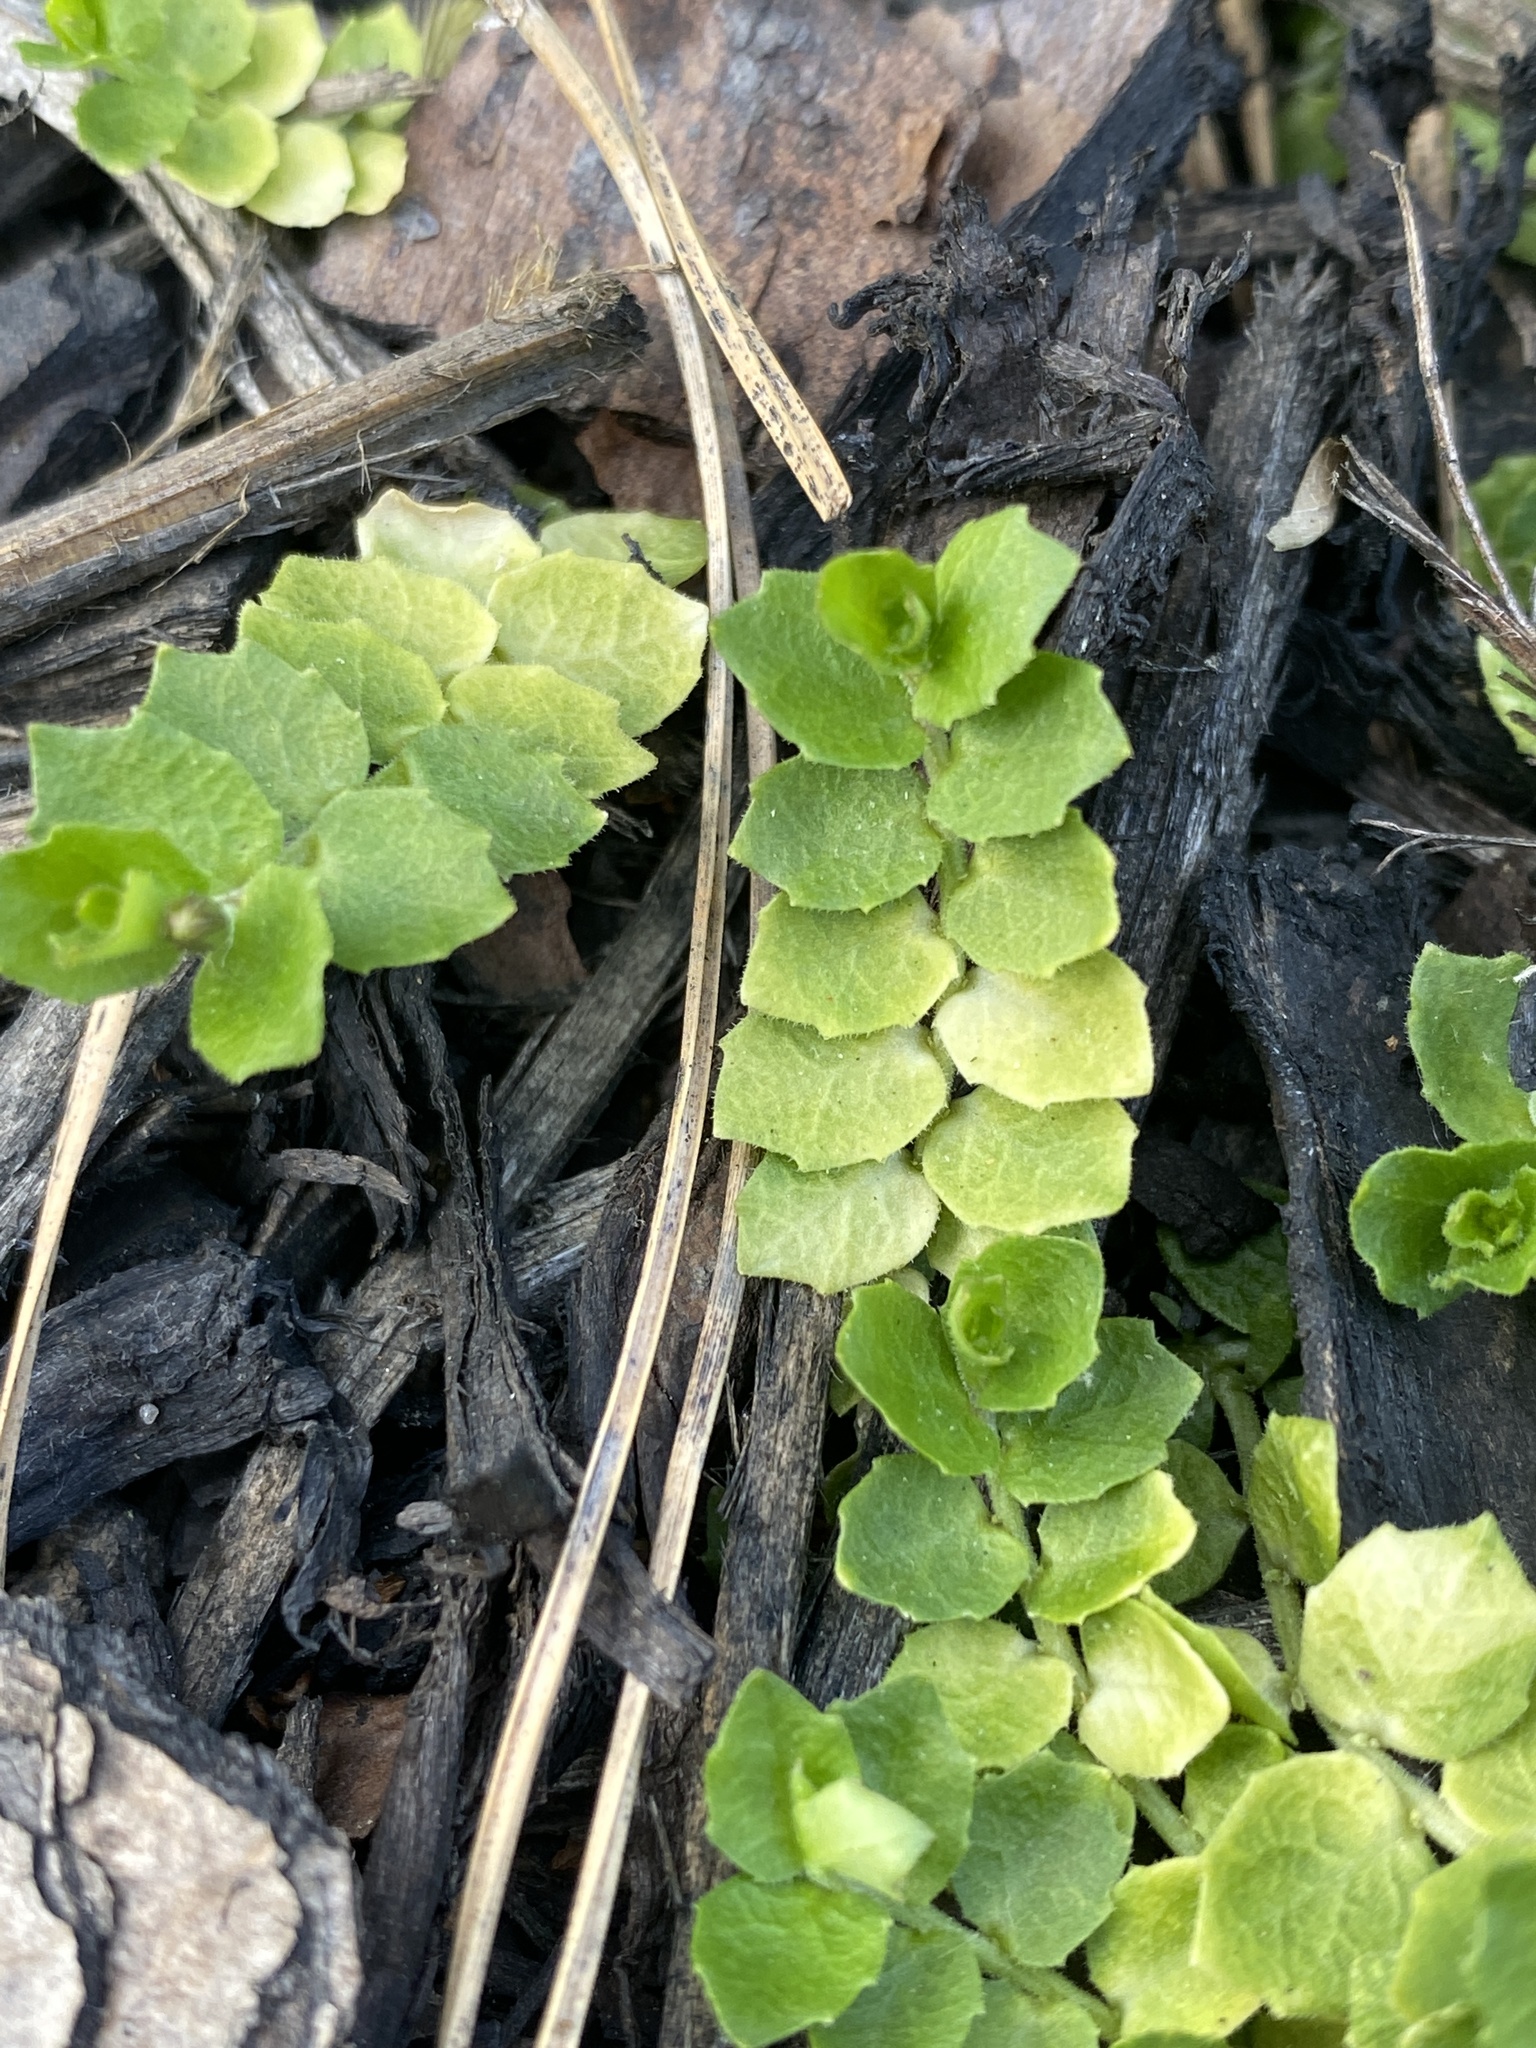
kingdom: Plantae
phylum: Tracheophyta
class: Magnoliopsida
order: Asterales
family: Campanulaceae
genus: Lobelia
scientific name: Lobelia pedunculata
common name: Matted pratia
